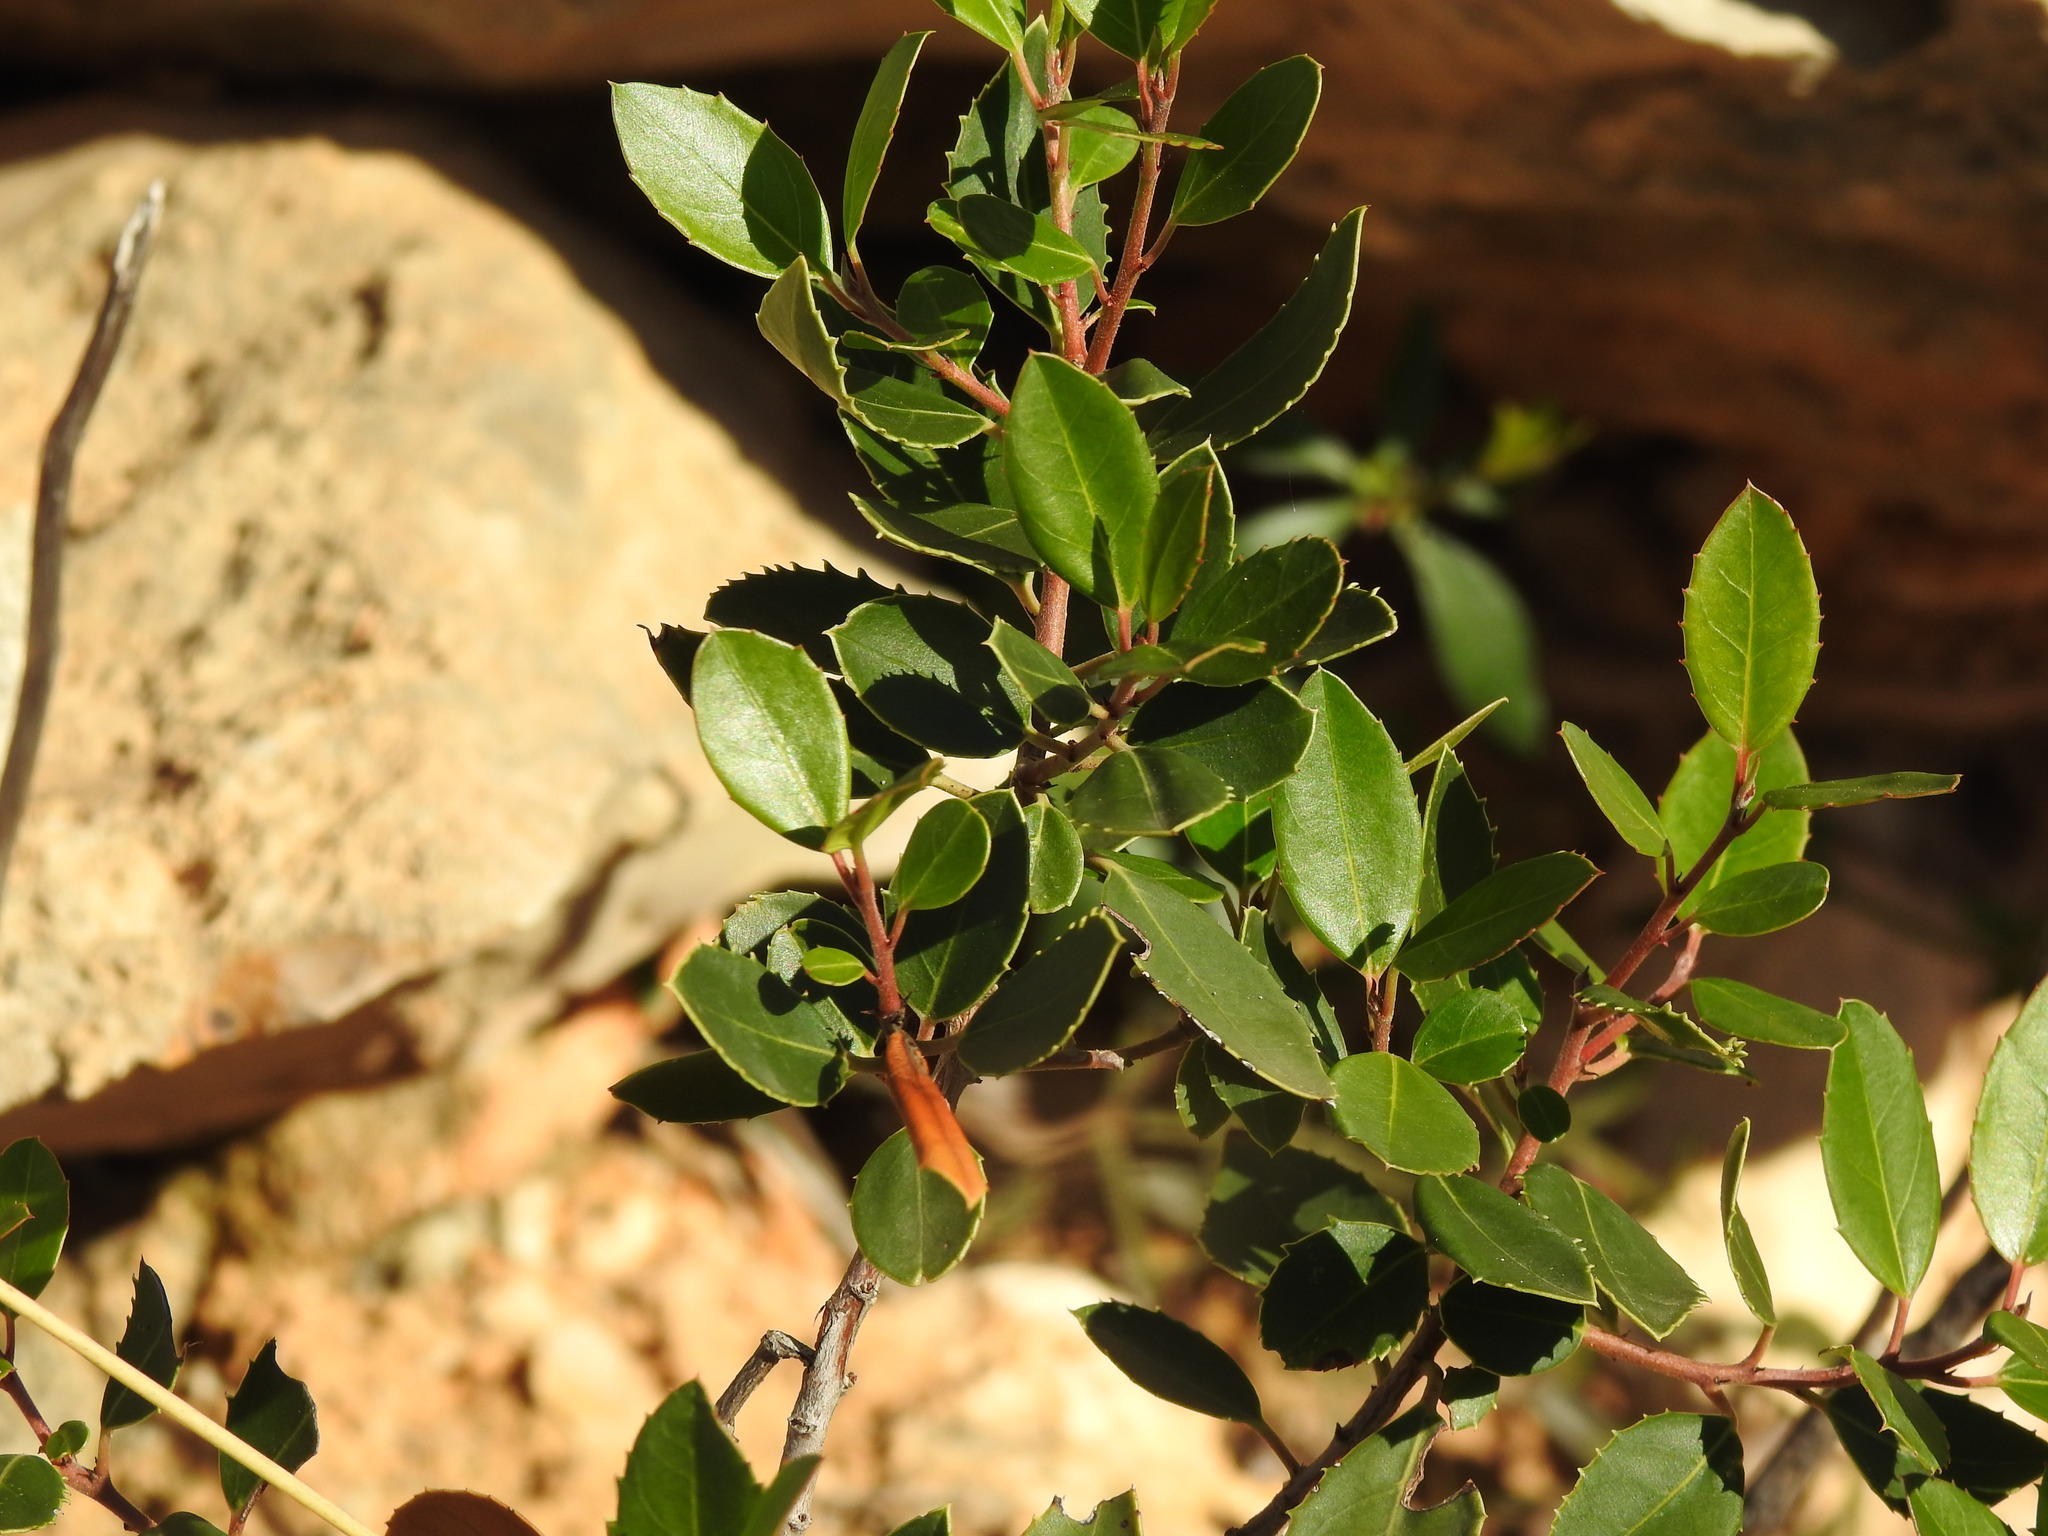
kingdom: Plantae
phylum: Tracheophyta
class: Magnoliopsida
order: Rosales
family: Rhamnaceae
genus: Rhamnus
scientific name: Rhamnus alaternus
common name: Mediterranean buckthorn
